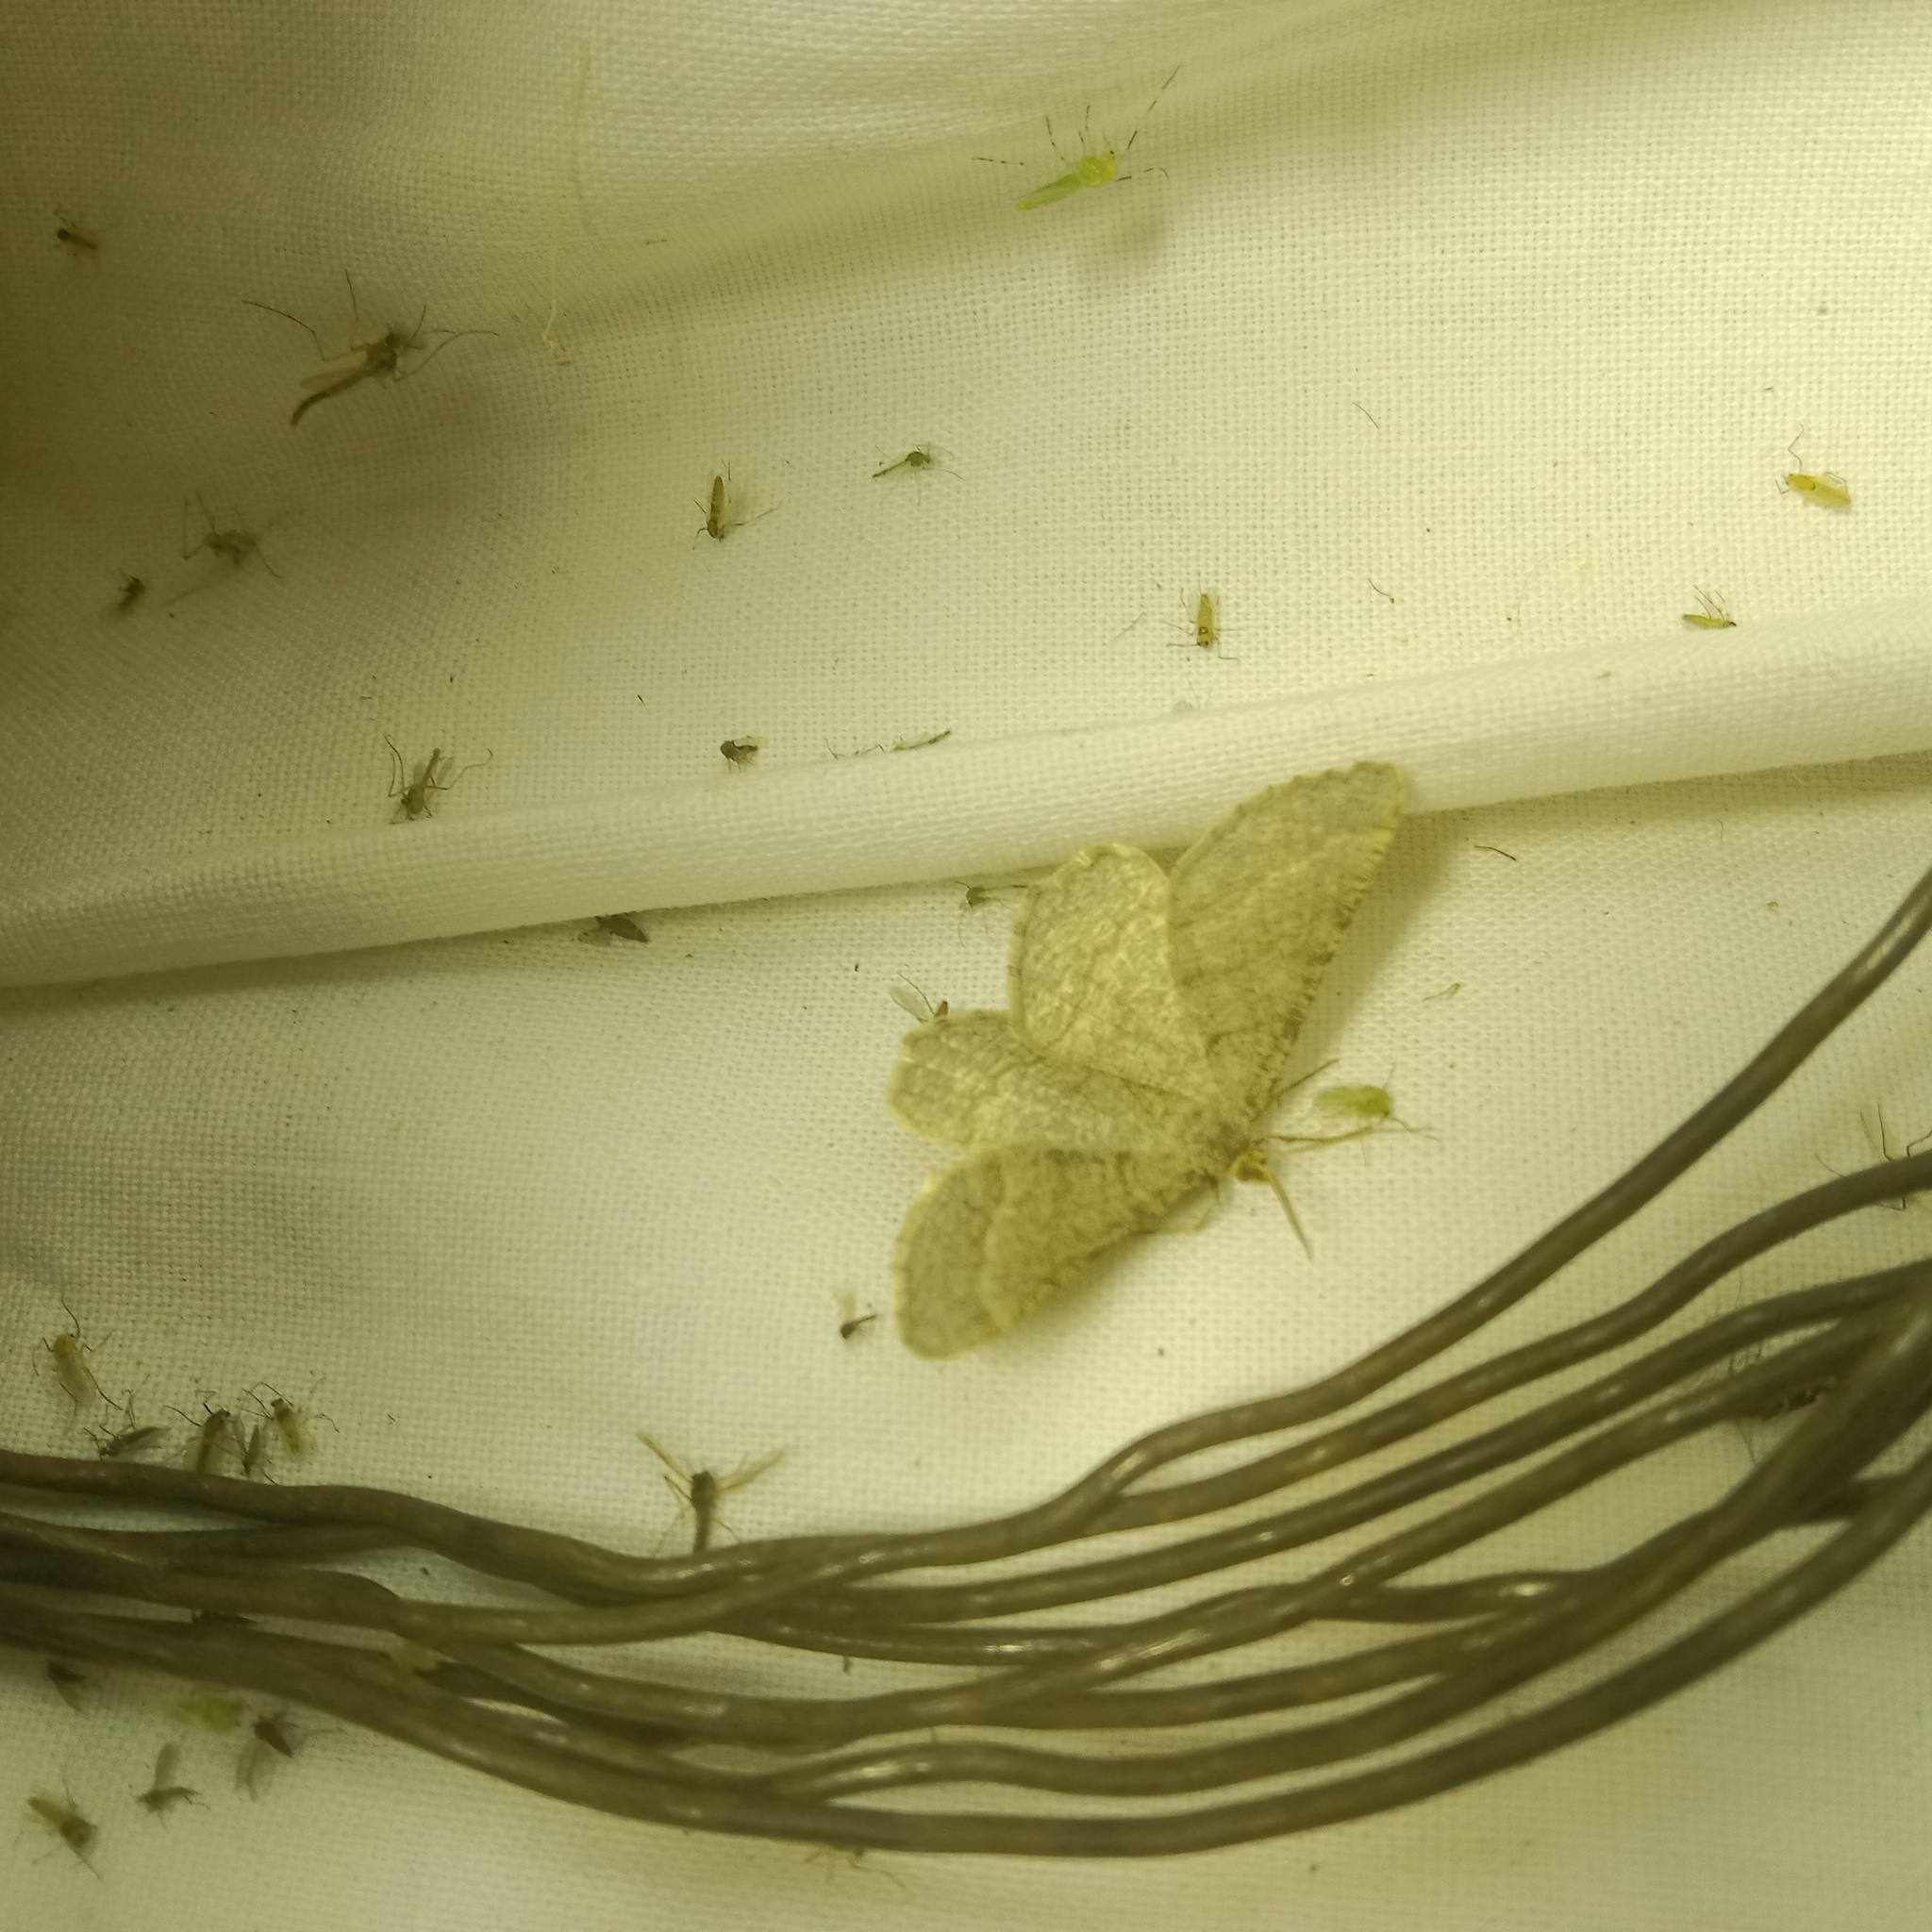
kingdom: Animalia
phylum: Arthropoda
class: Insecta
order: Lepidoptera
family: Geometridae
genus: Tephrina
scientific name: Tephrina murinaria
